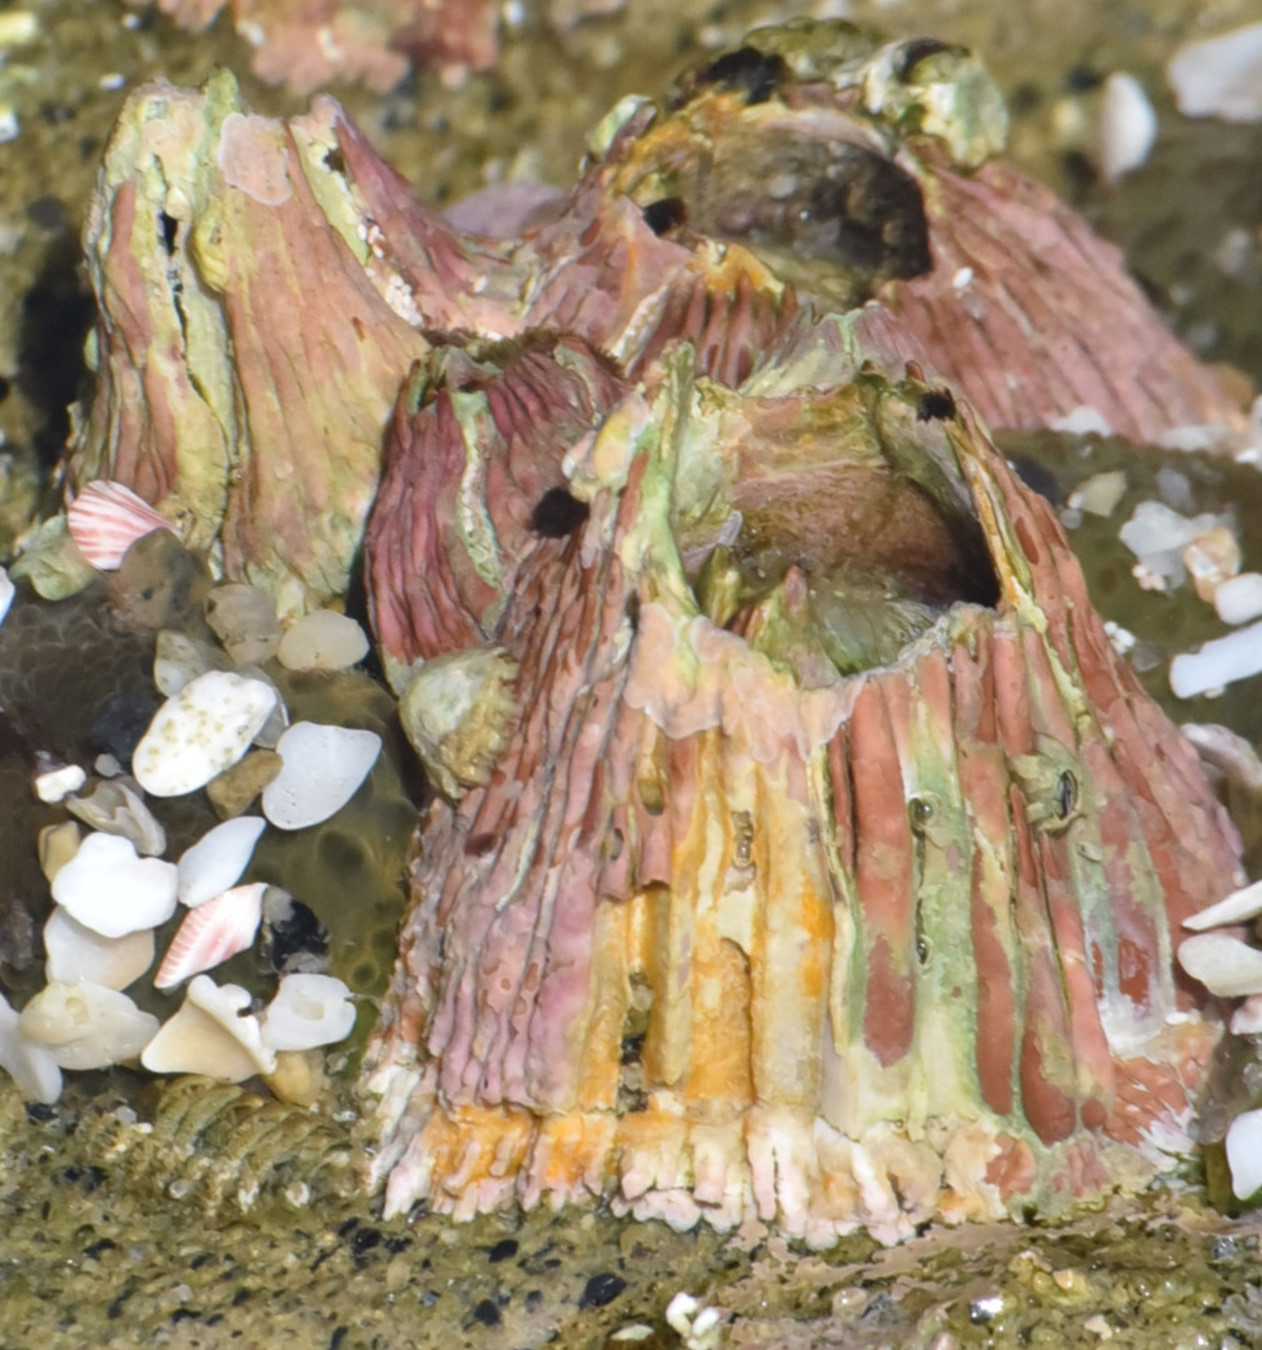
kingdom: Animalia
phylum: Arthropoda
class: Maxillopoda
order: Sessilia
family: Tetraclitidae
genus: Tetraclita
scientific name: Tetraclita rubescens
